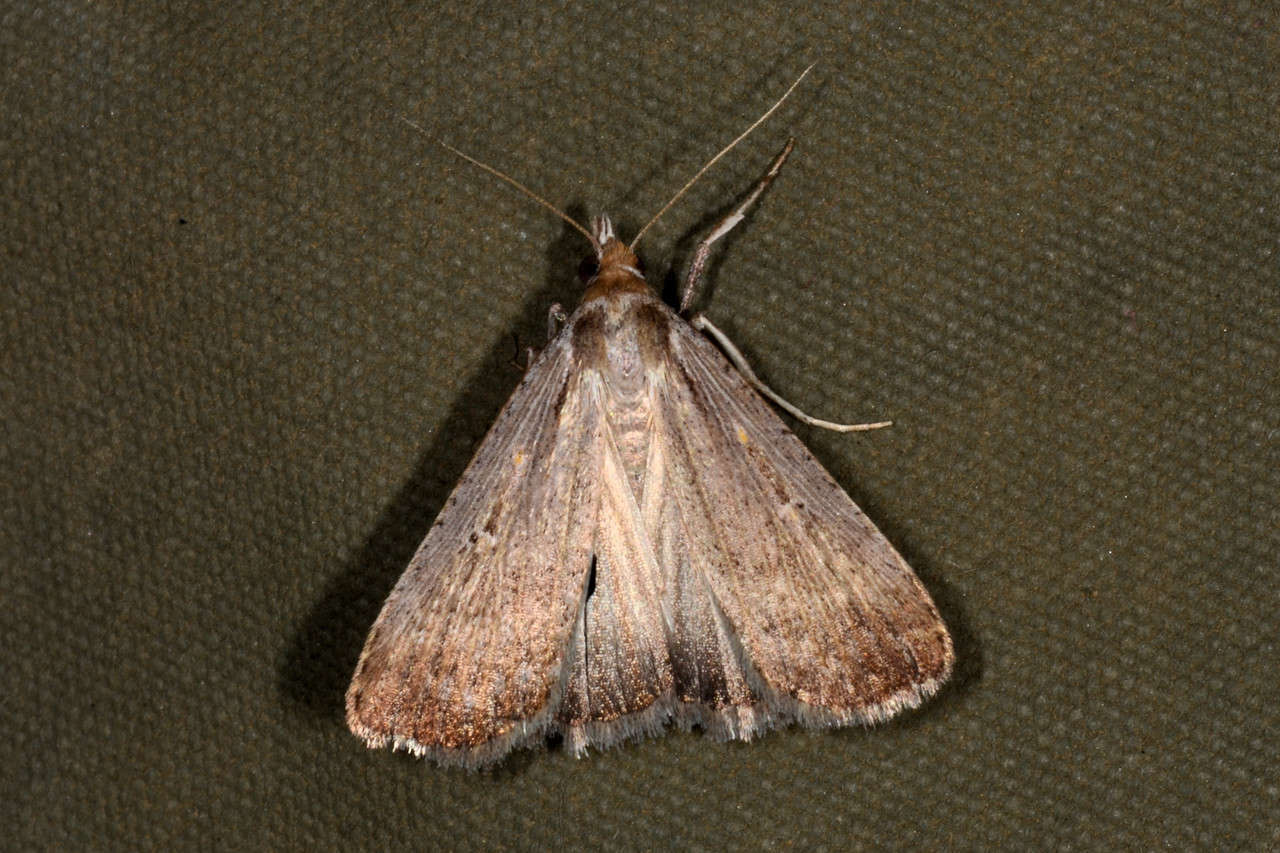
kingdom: Animalia
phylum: Arthropoda
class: Insecta
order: Lepidoptera
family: Noctuidae
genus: Tathorhynchus
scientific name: Tathorhynchus fallax
